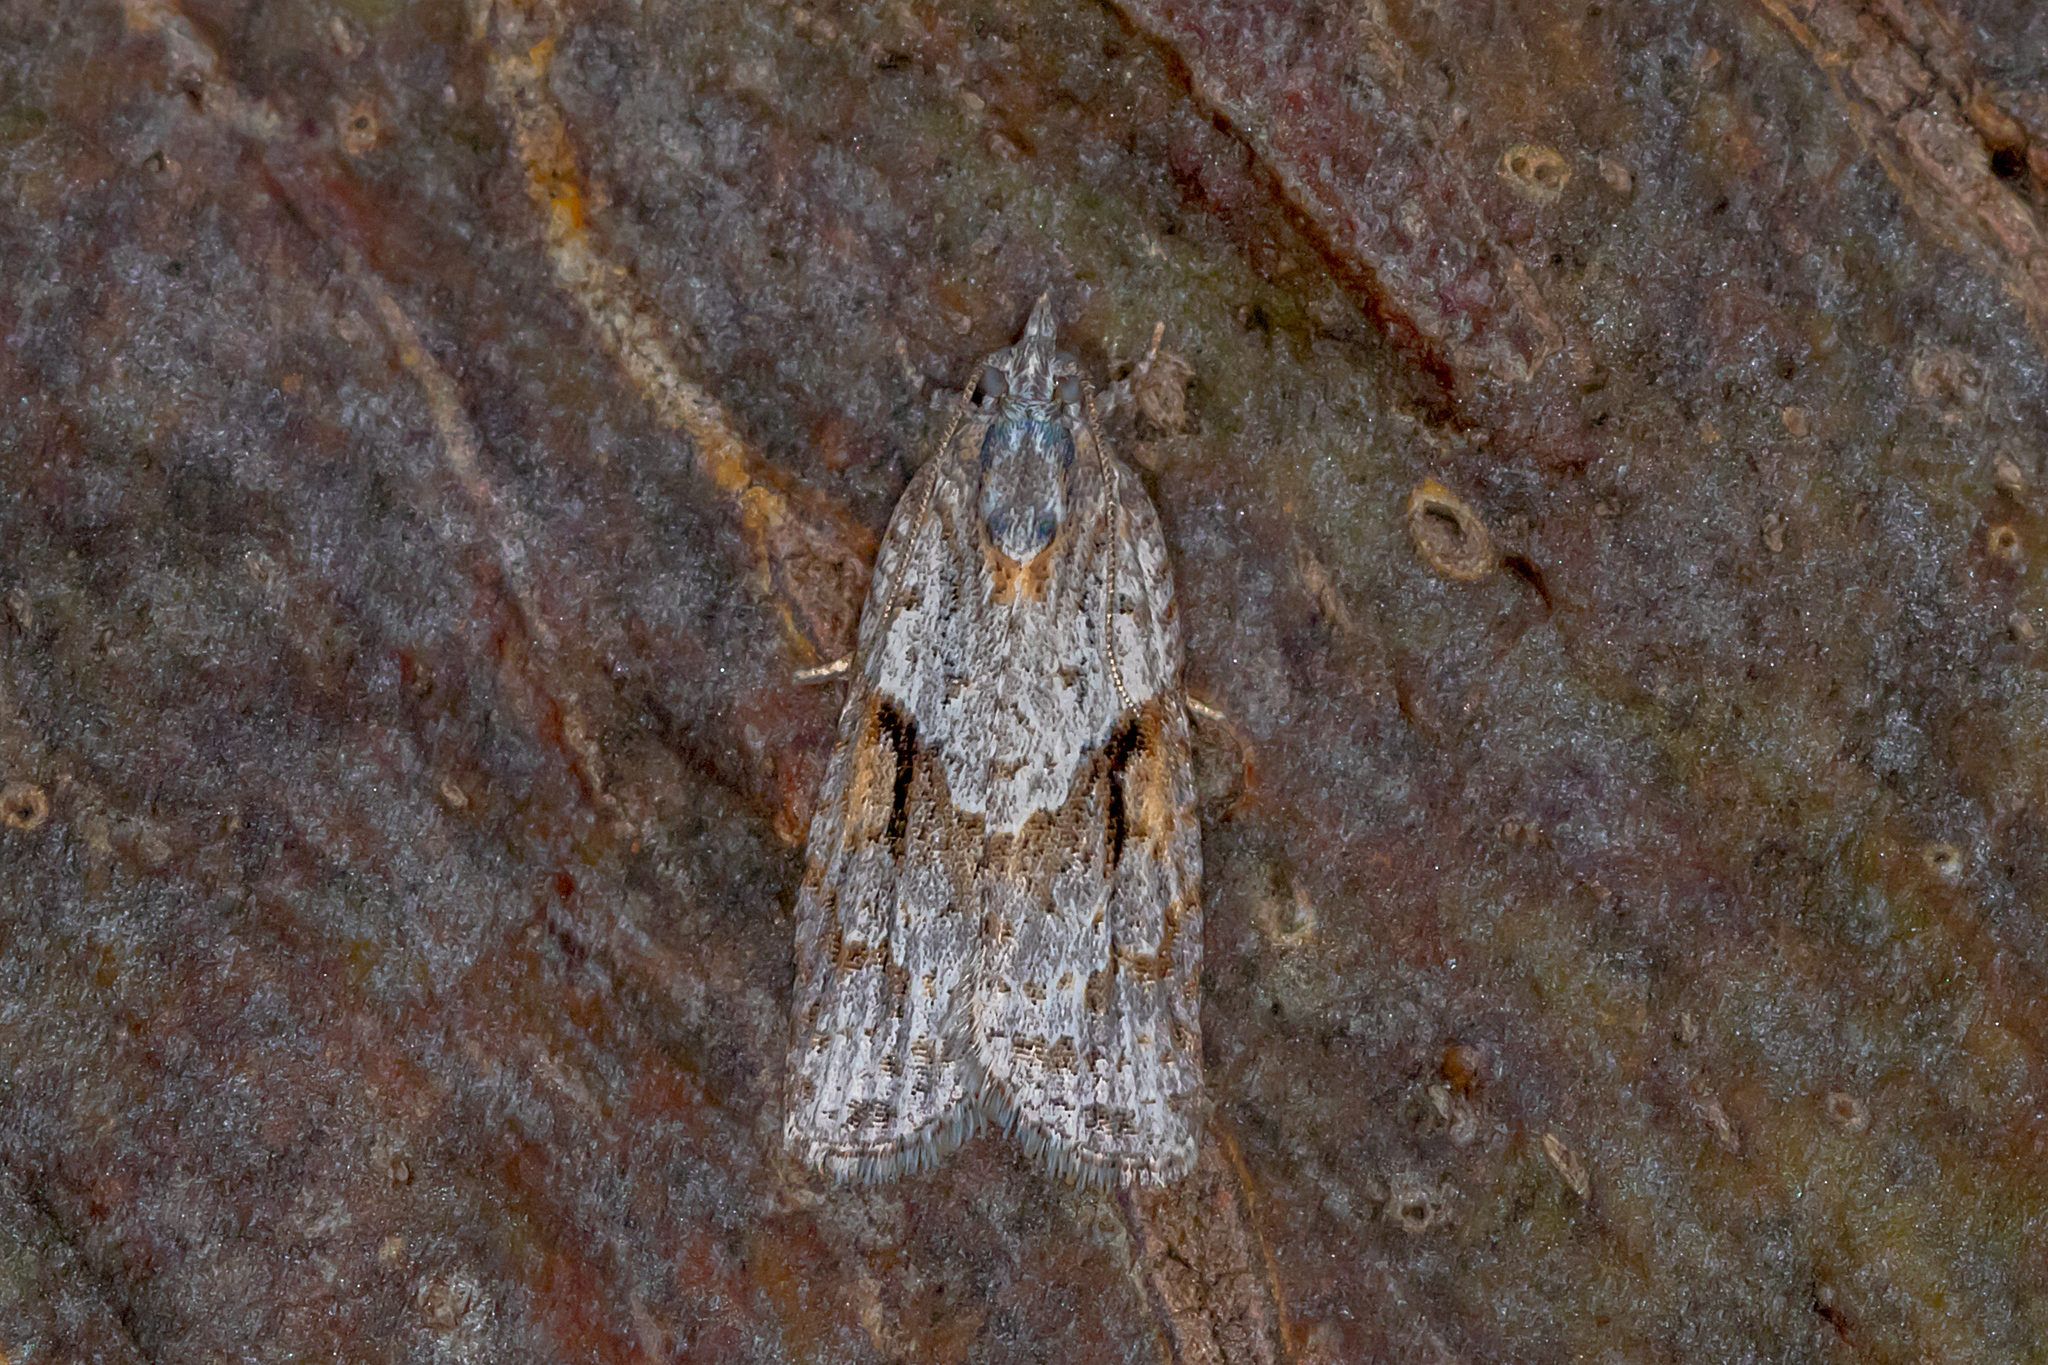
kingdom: Animalia
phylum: Arthropoda
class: Insecta
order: Lepidoptera
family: Tortricidae
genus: Acropolitis
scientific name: Acropolitis rudisana
